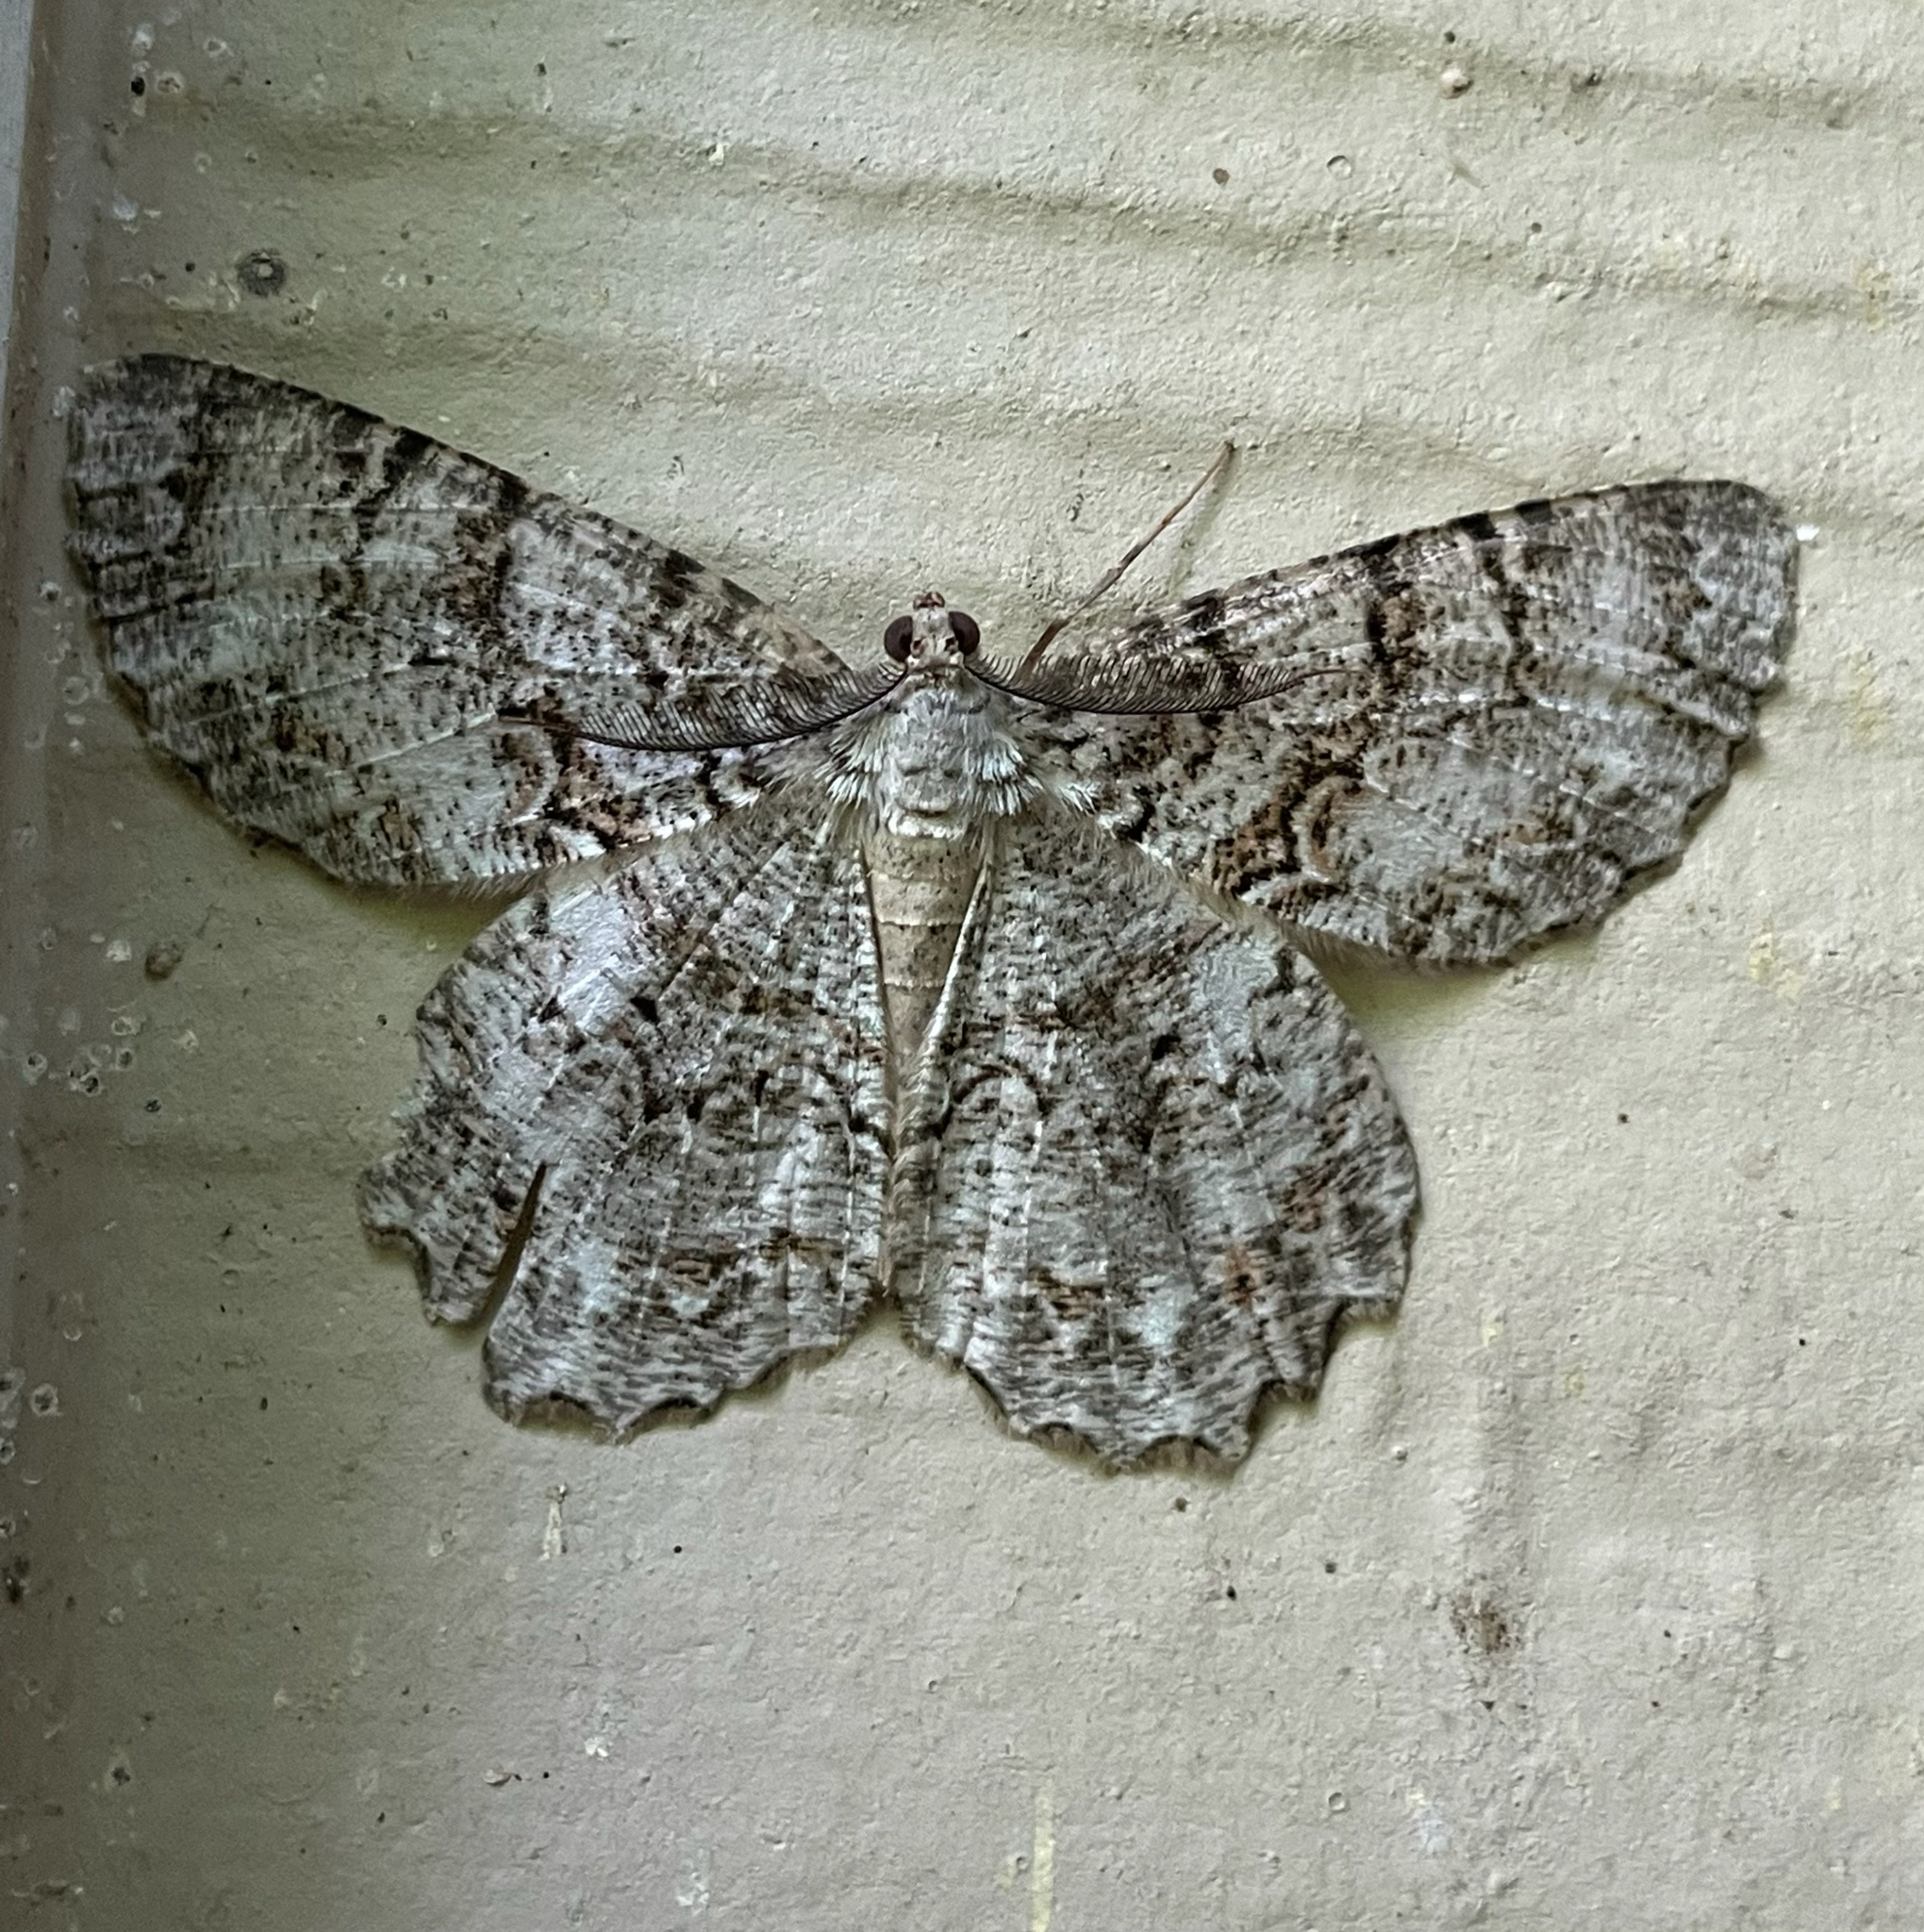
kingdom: Animalia
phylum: Arthropoda
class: Insecta
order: Lepidoptera
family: Geometridae
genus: Epimecis
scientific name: Epimecis hortaria
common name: Tulip-tree beauty
